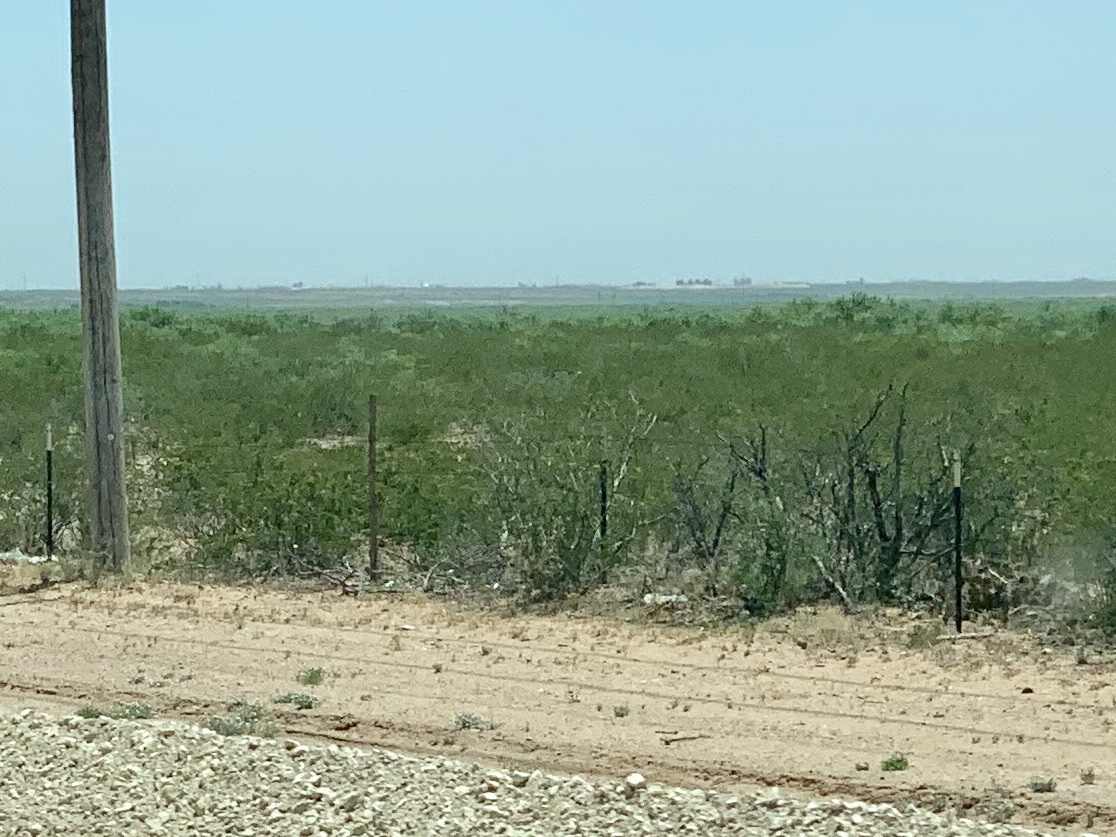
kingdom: Plantae
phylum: Tracheophyta
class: Magnoliopsida
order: Zygophyllales
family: Zygophyllaceae
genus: Larrea
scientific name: Larrea tridentata
